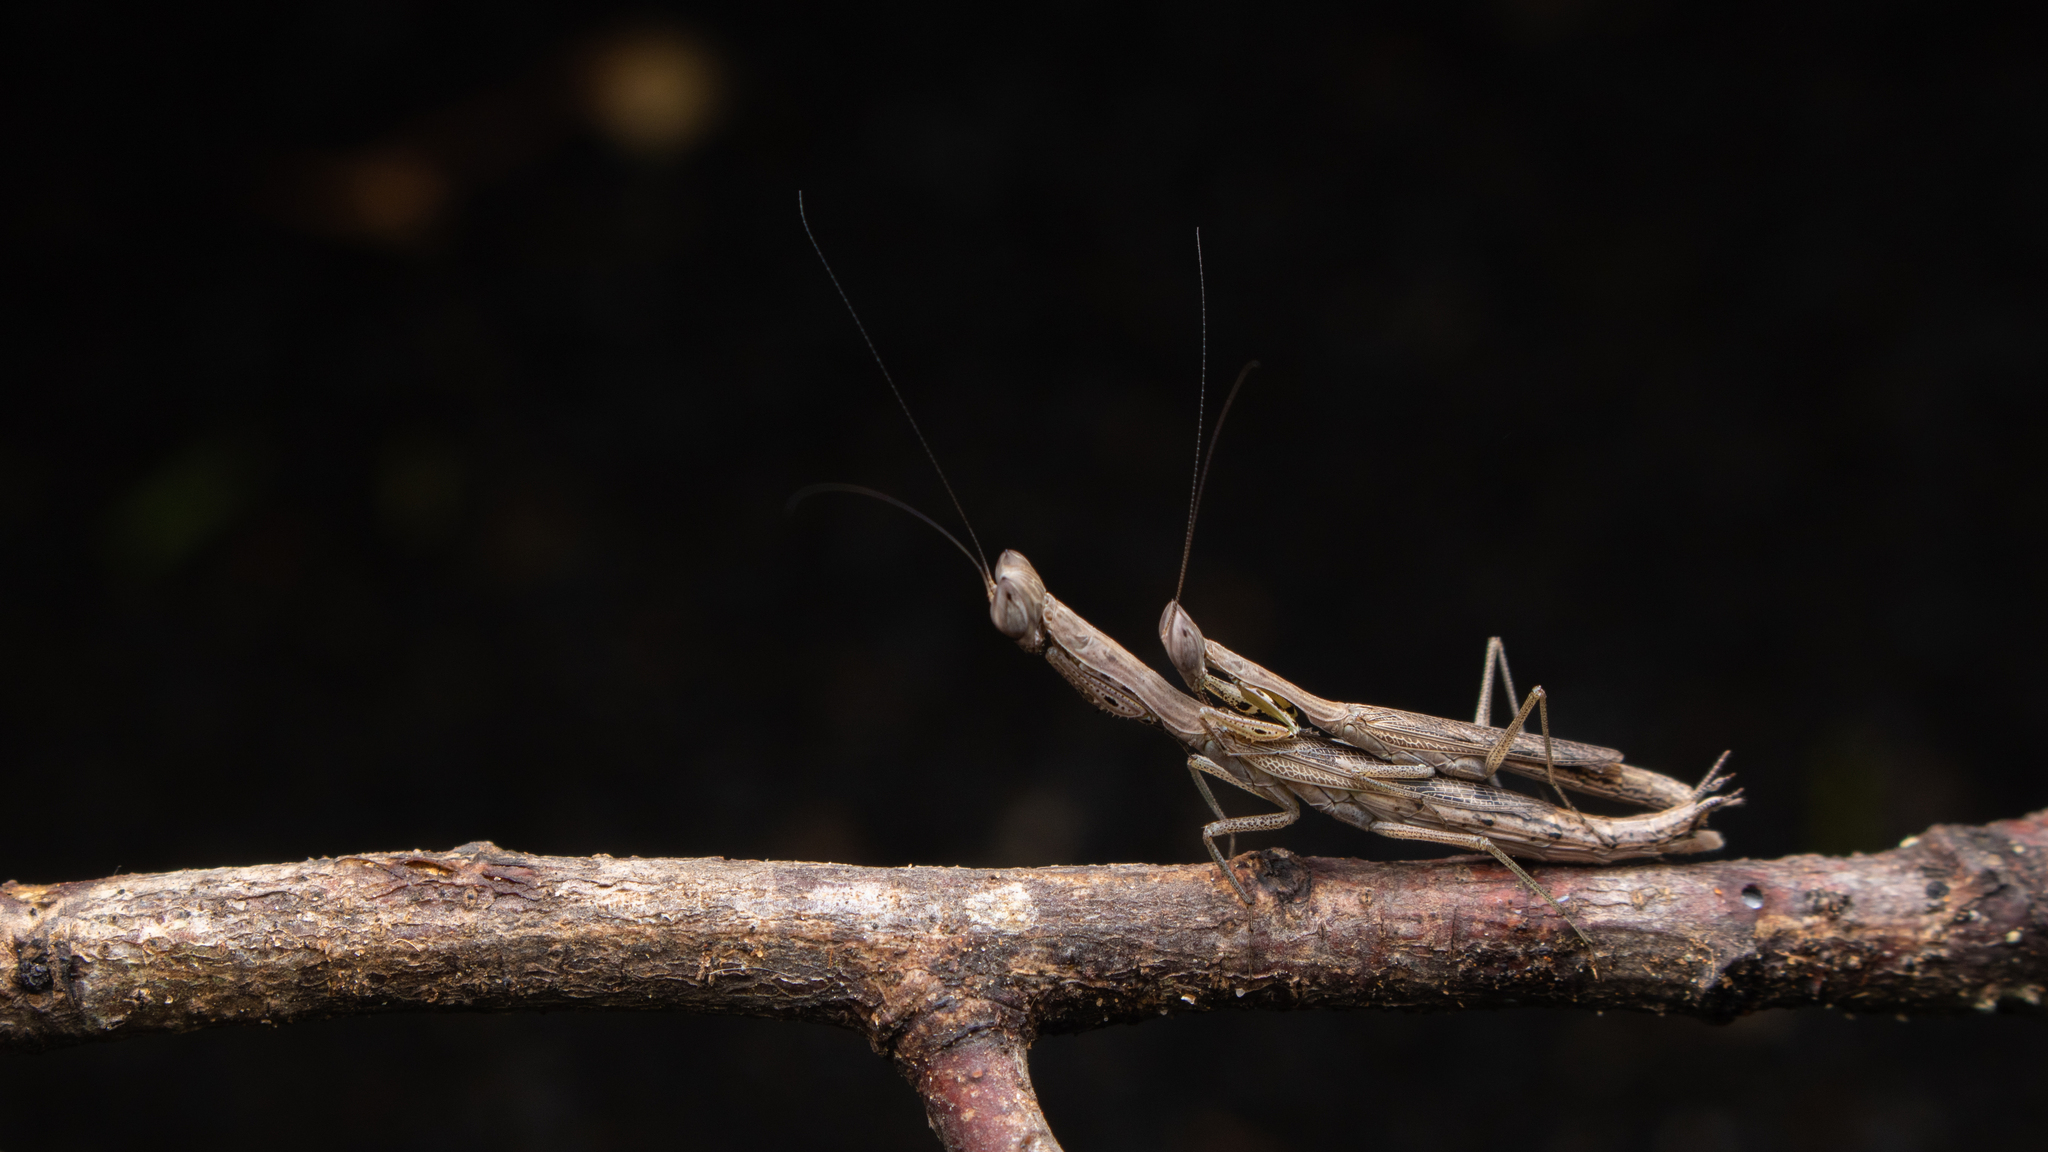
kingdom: Animalia
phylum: Arthropoda
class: Insecta
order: Mantodea
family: Eremiaphilidae
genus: Oxyophthalma
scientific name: Oxyophthalma gracilis
